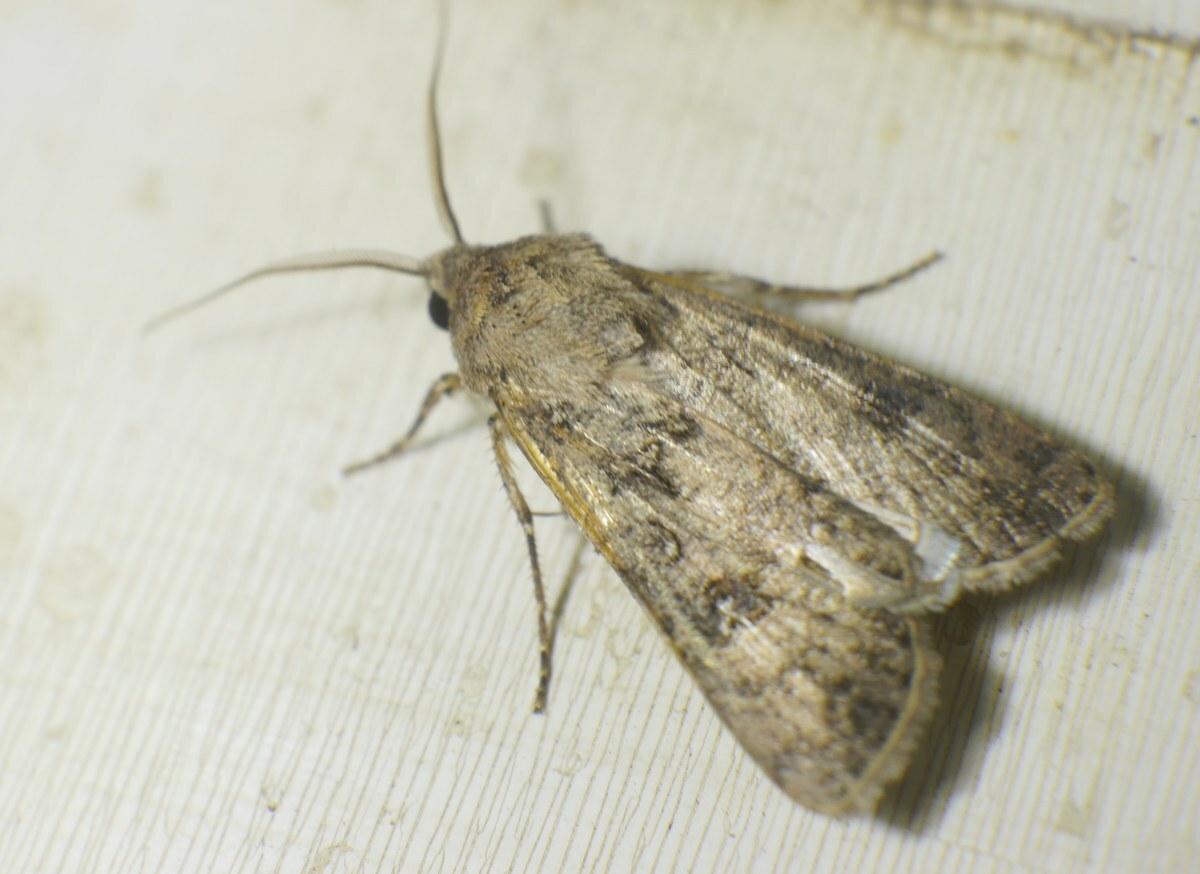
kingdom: Animalia
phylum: Arthropoda
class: Insecta
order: Lepidoptera
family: Noctuidae
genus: Agrotis
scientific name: Agrotis segetum
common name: Turnip moth
